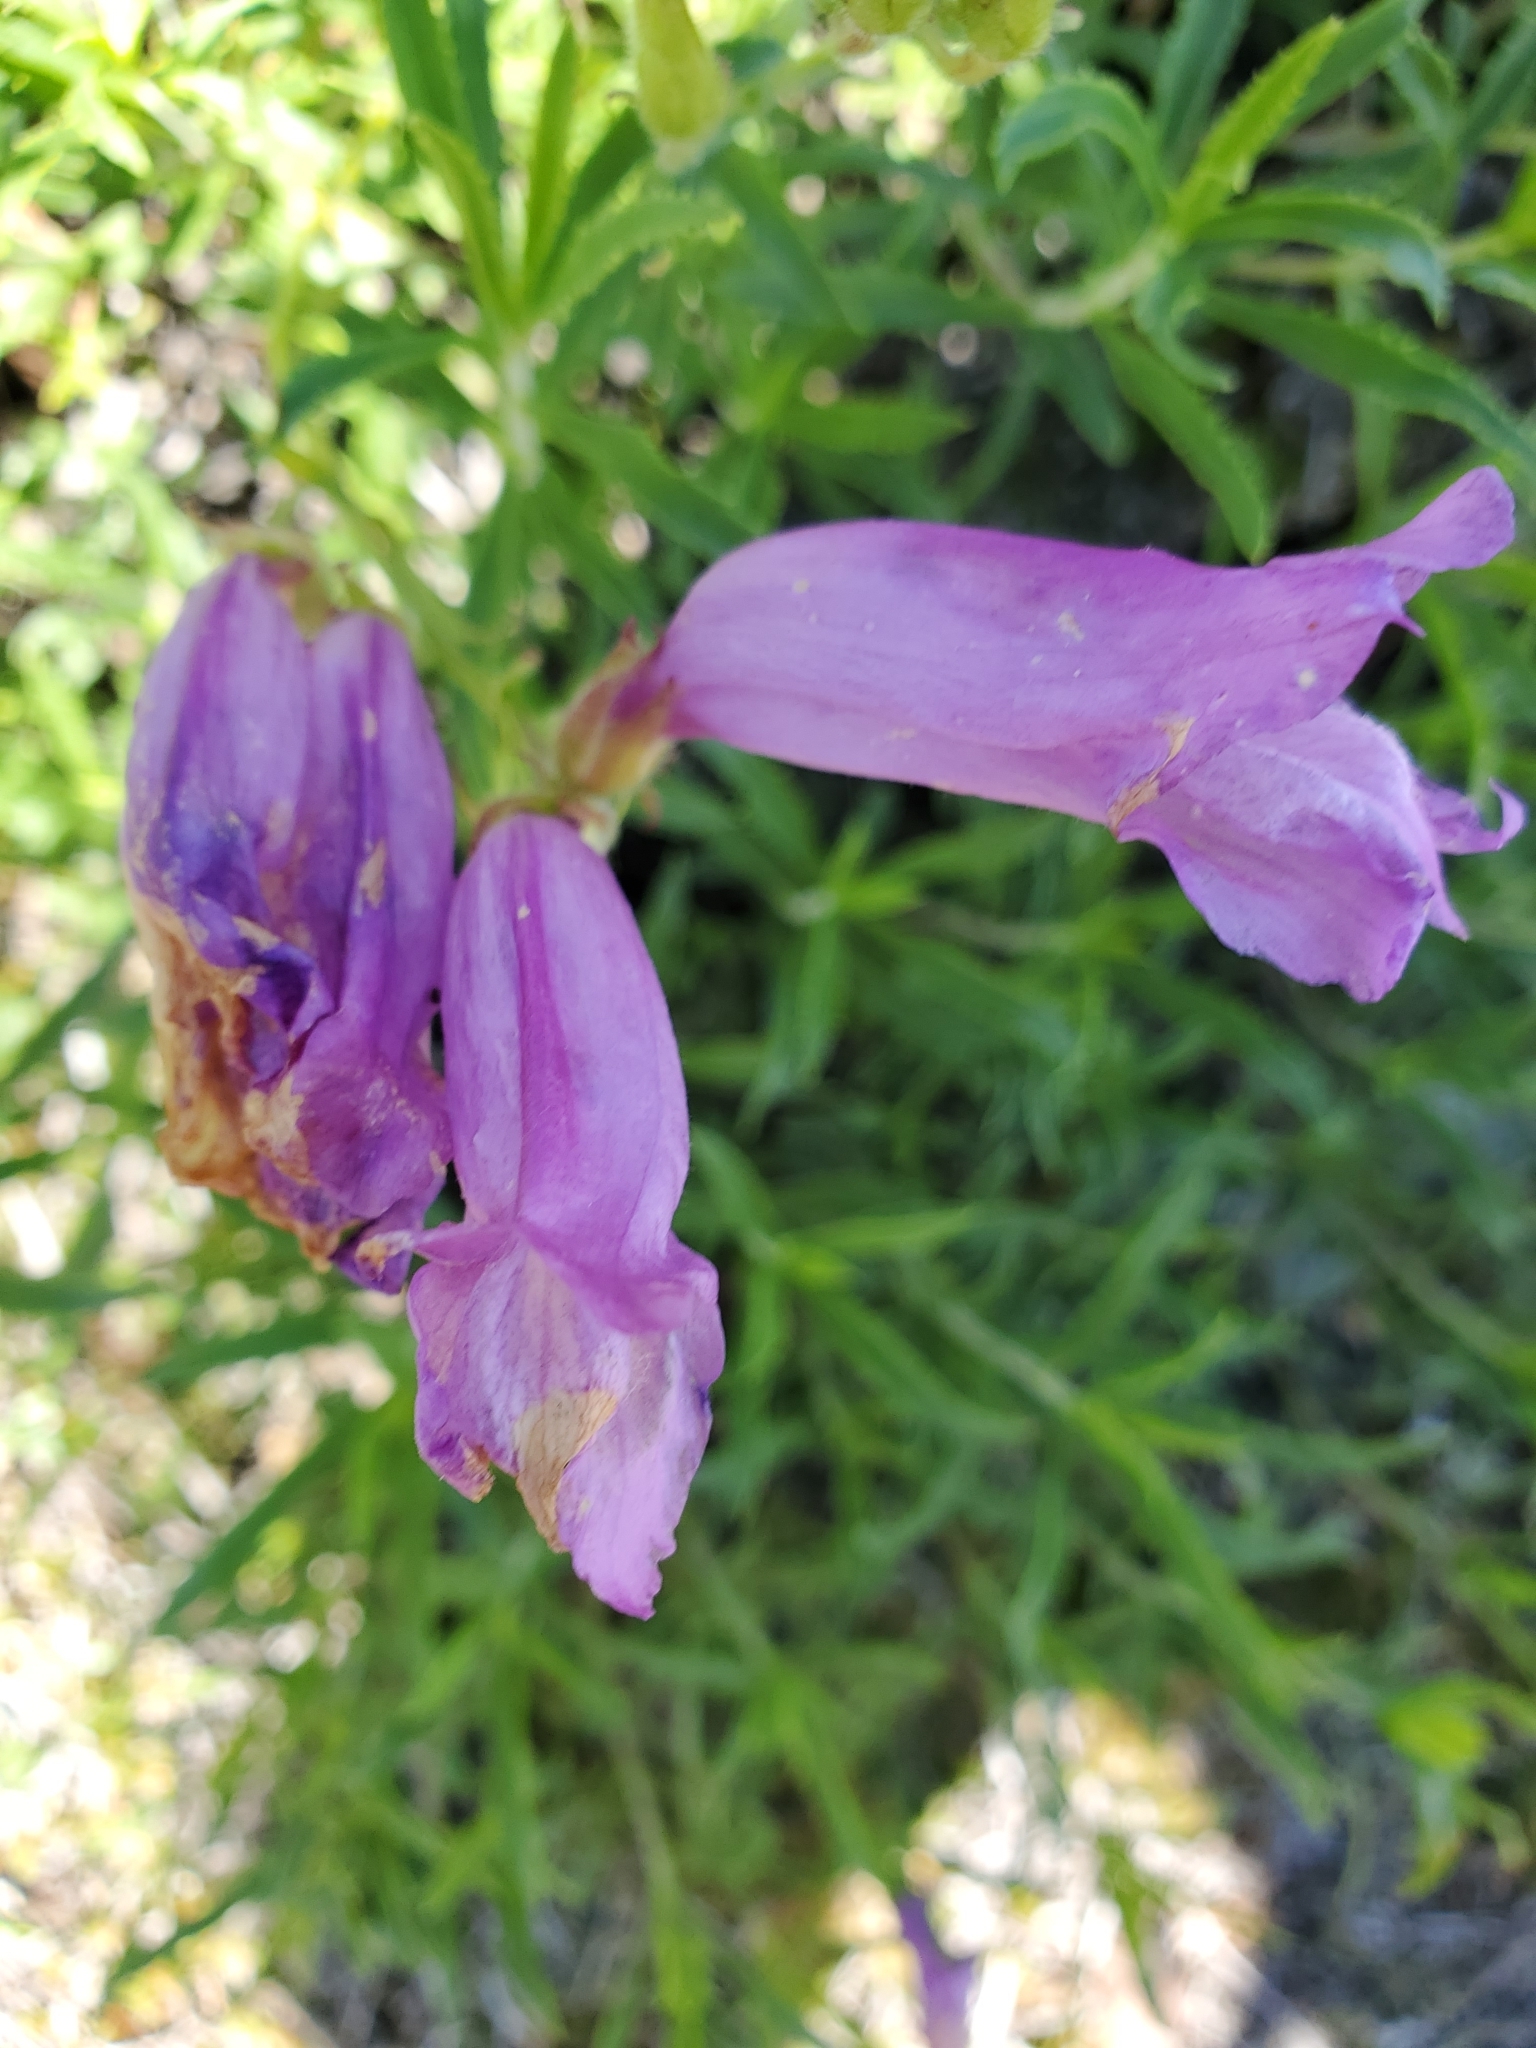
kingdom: Plantae
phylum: Tracheophyta
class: Magnoliopsida
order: Lamiales
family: Plantaginaceae
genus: Penstemon
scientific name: Penstemon fruticosus
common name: Bush penstemon
